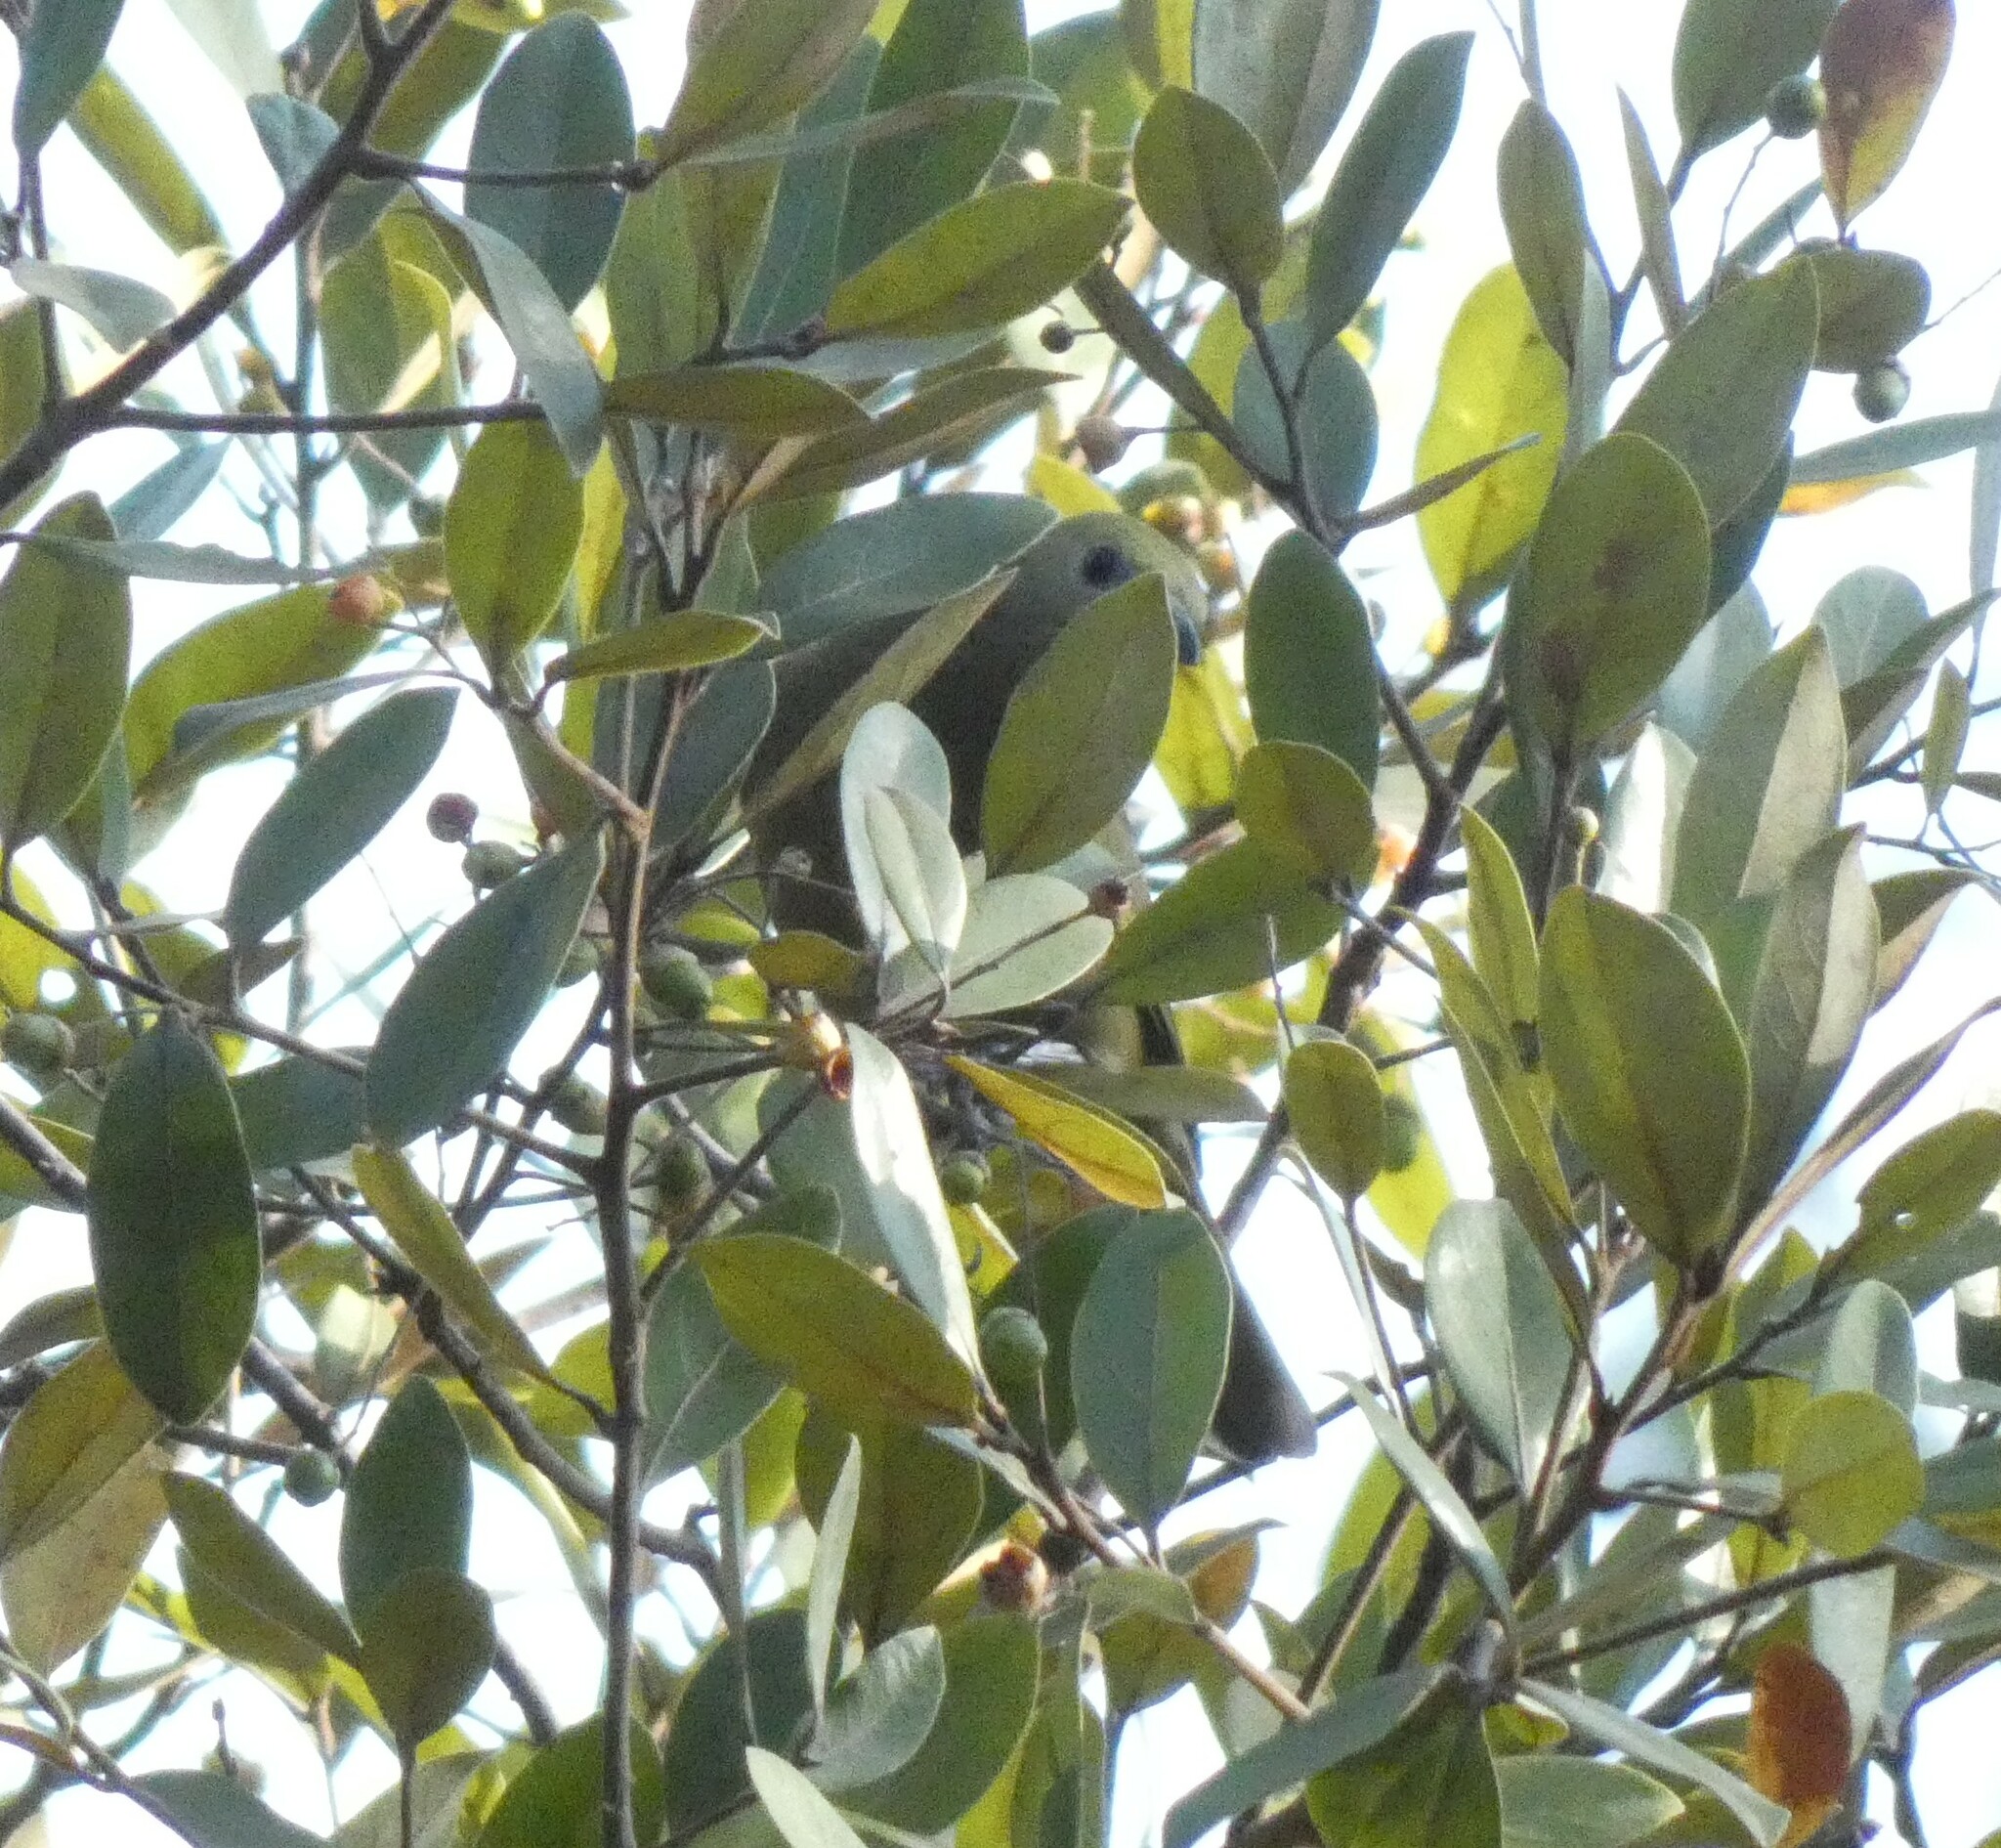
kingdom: Animalia
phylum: Chordata
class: Aves
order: Passeriformes
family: Thraupidae
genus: Thraupis
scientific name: Thraupis palmarum
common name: Palm tanager
